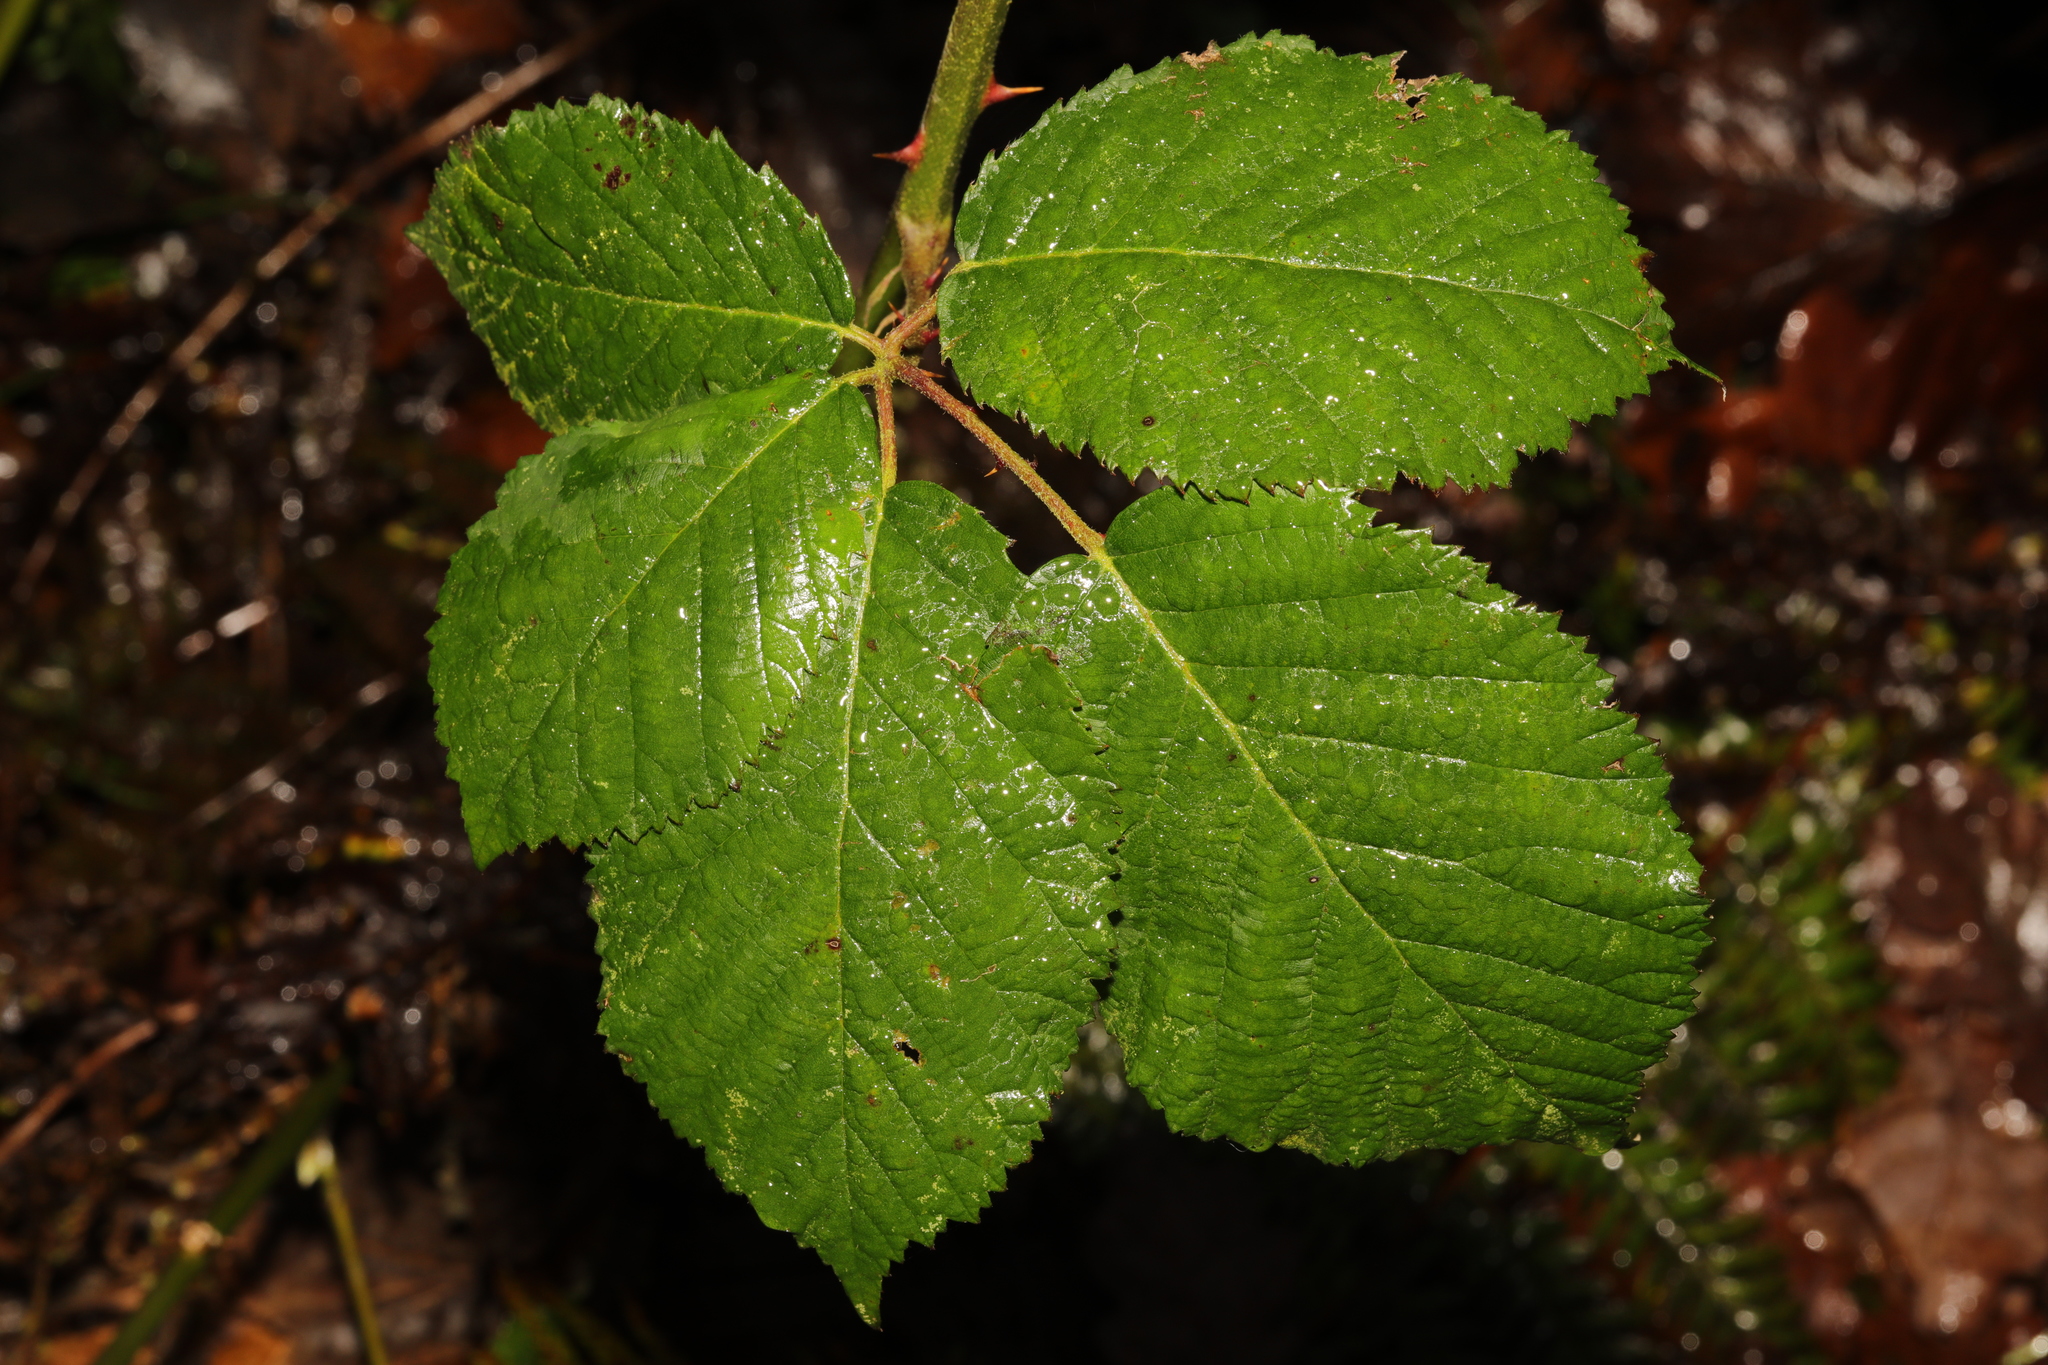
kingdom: Plantae
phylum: Tracheophyta
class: Magnoliopsida
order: Rosales
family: Rosaceae
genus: Rubus
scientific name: Rubus armeniacus
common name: Himalayan blackberry
